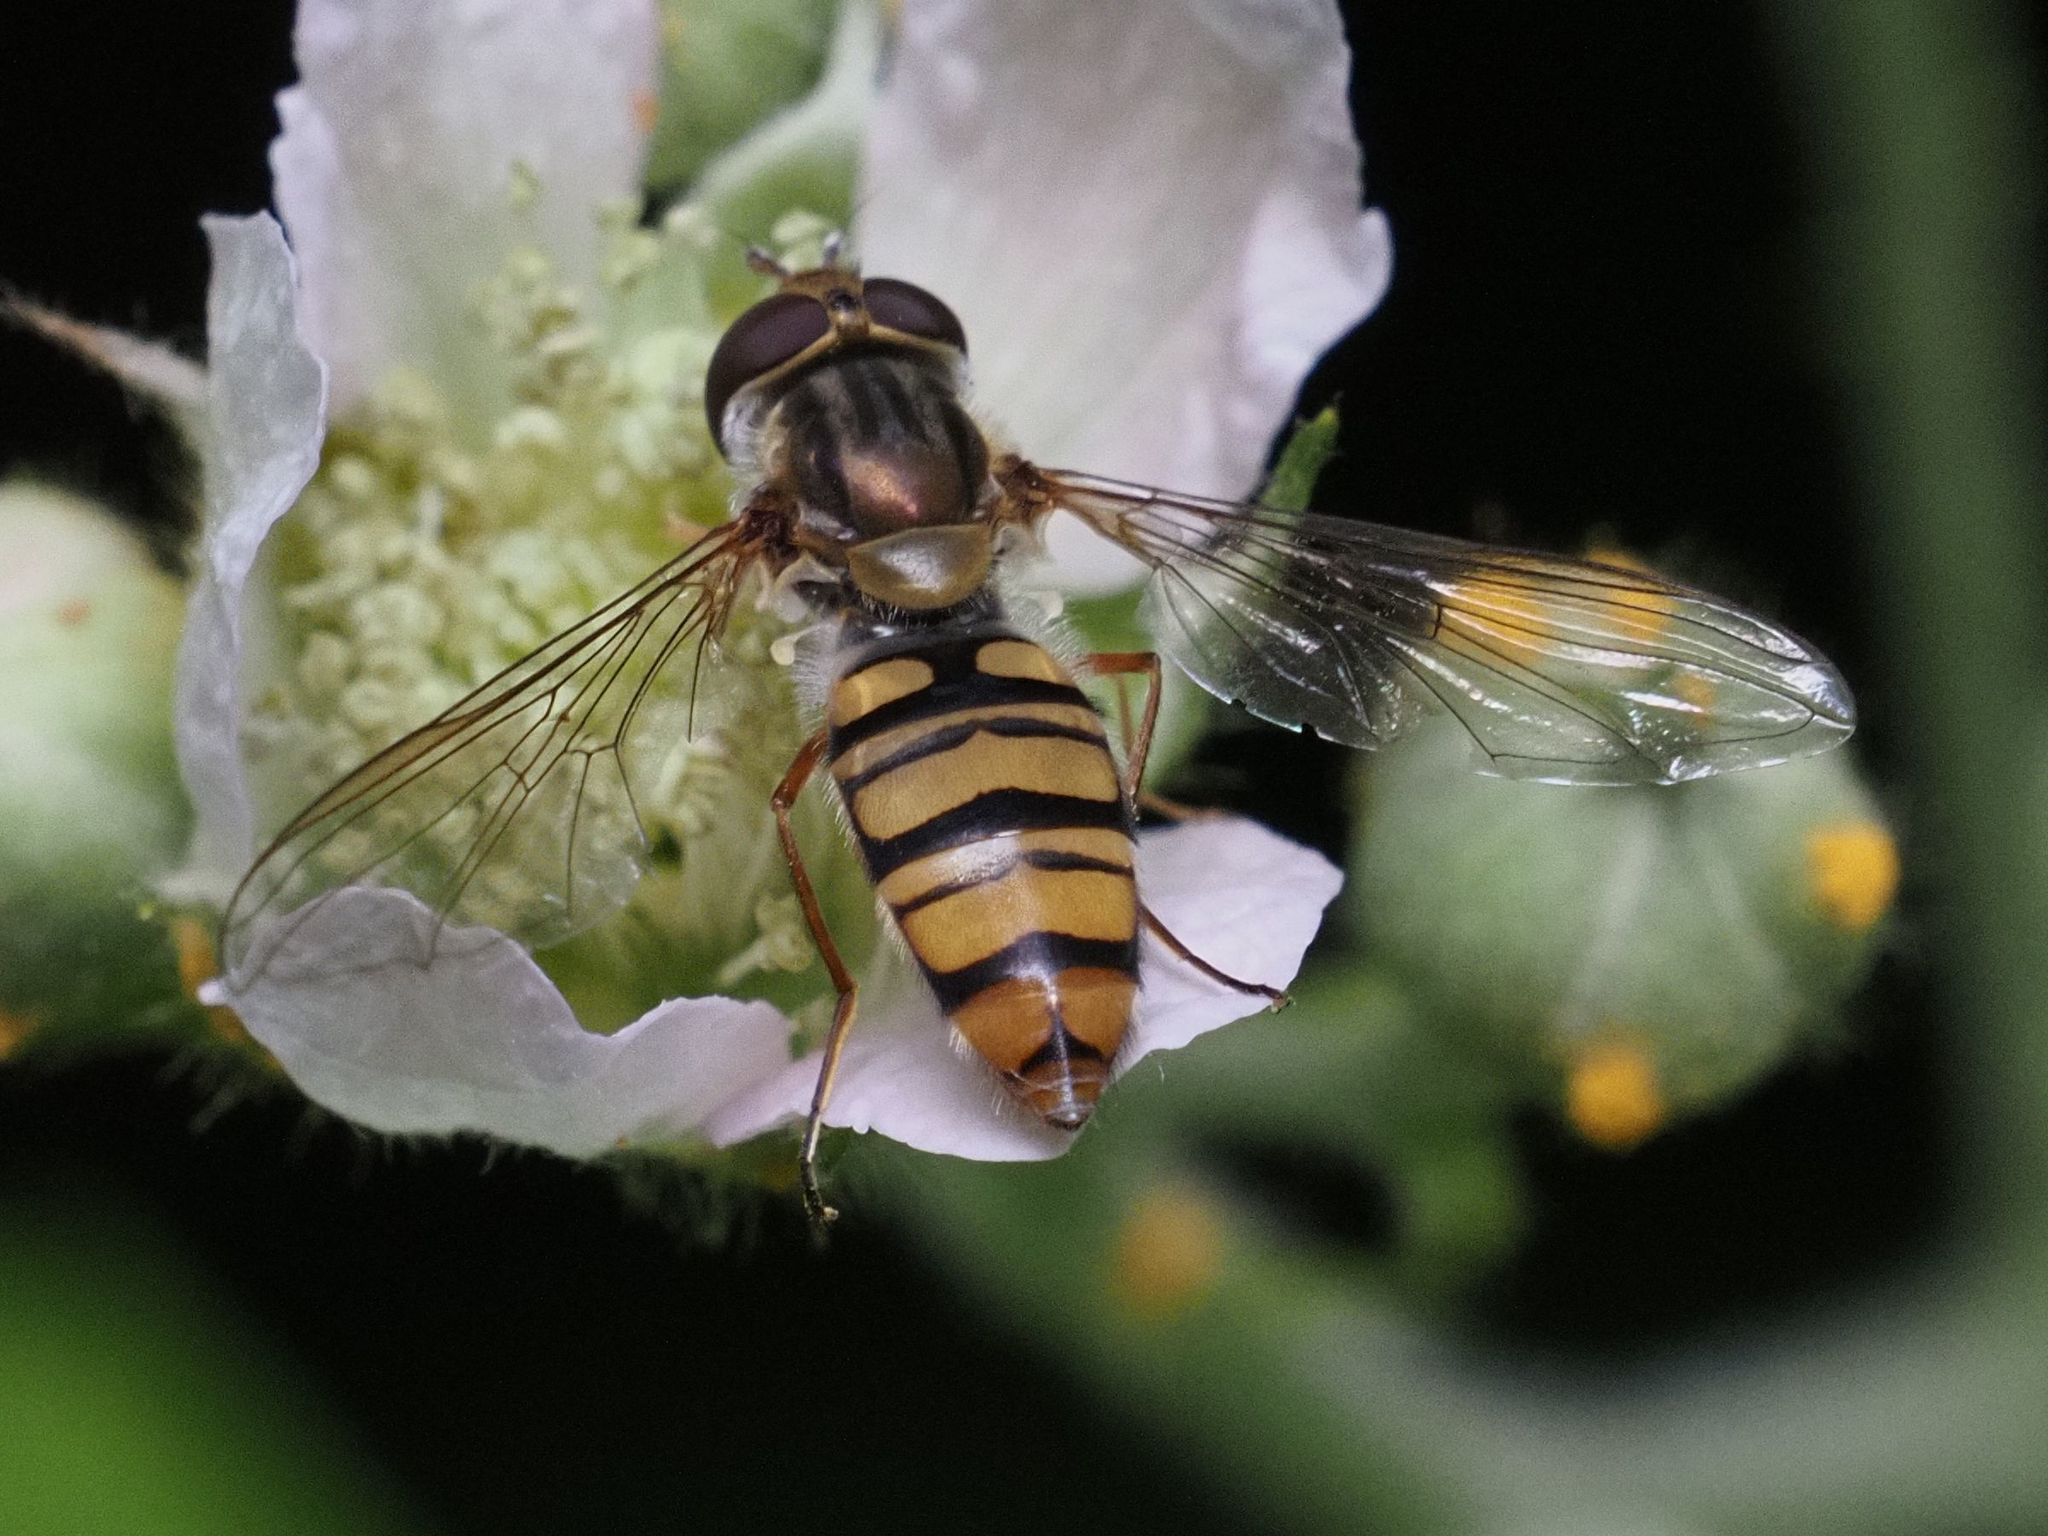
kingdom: Animalia
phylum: Arthropoda
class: Insecta
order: Diptera
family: Syrphidae
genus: Episyrphus
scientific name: Episyrphus balteatus
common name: Marmalade hoverfly
